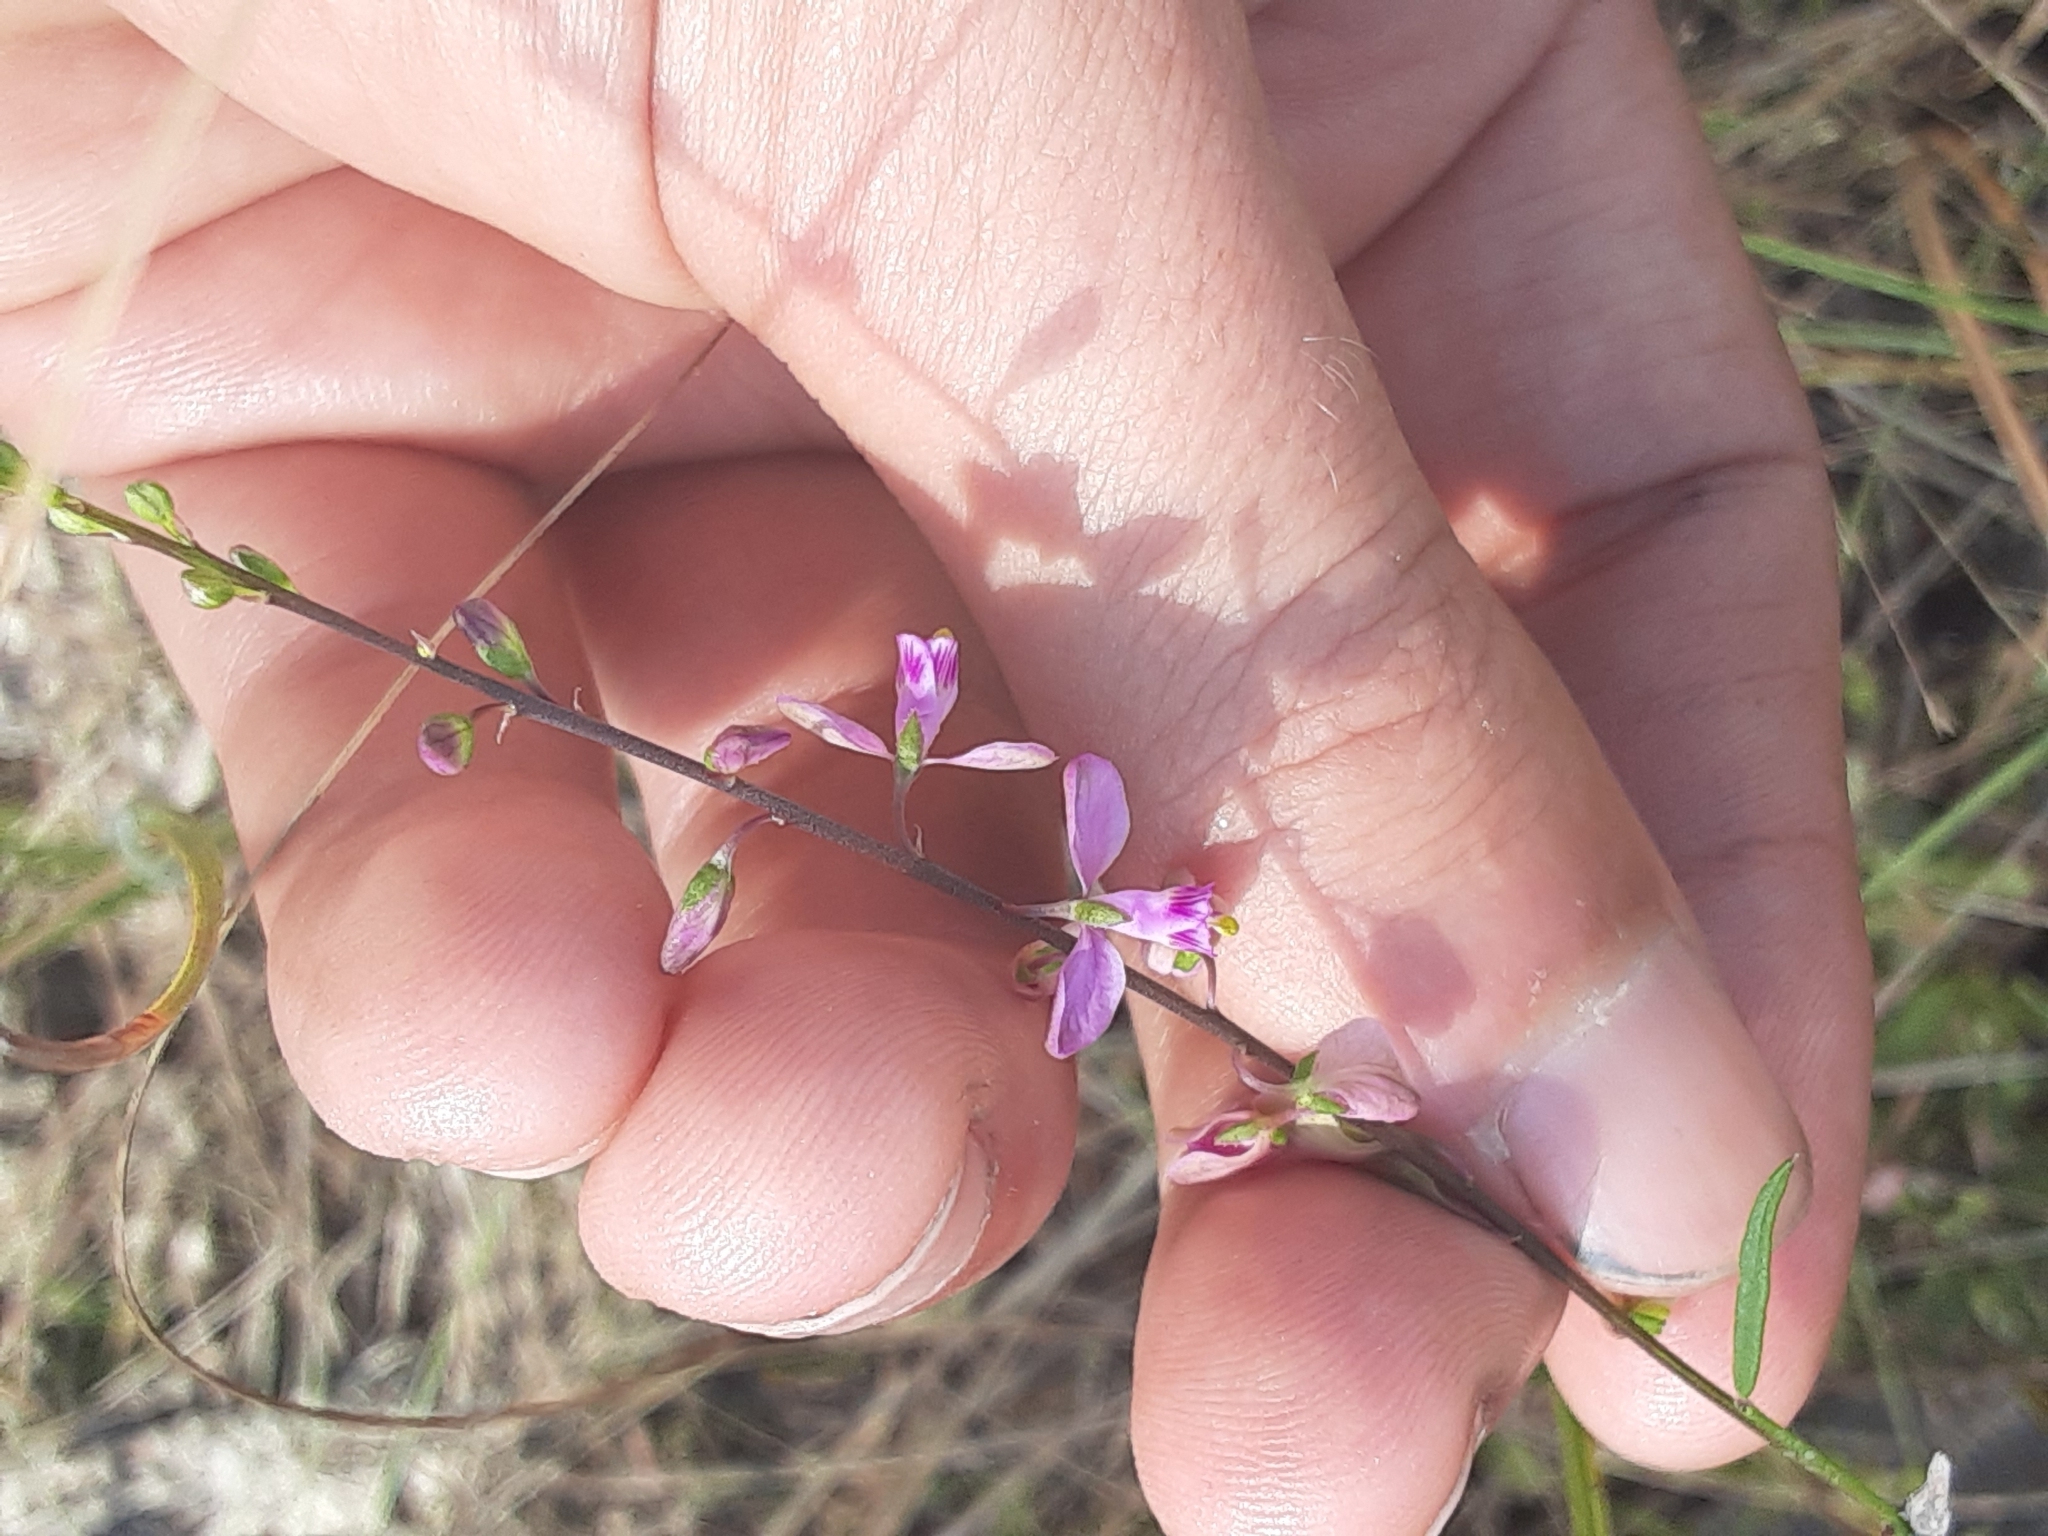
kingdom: Plantae
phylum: Tracheophyta
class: Magnoliopsida
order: Fabales
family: Polygalaceae
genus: Asemeia
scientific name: Asemeia grandiflora
